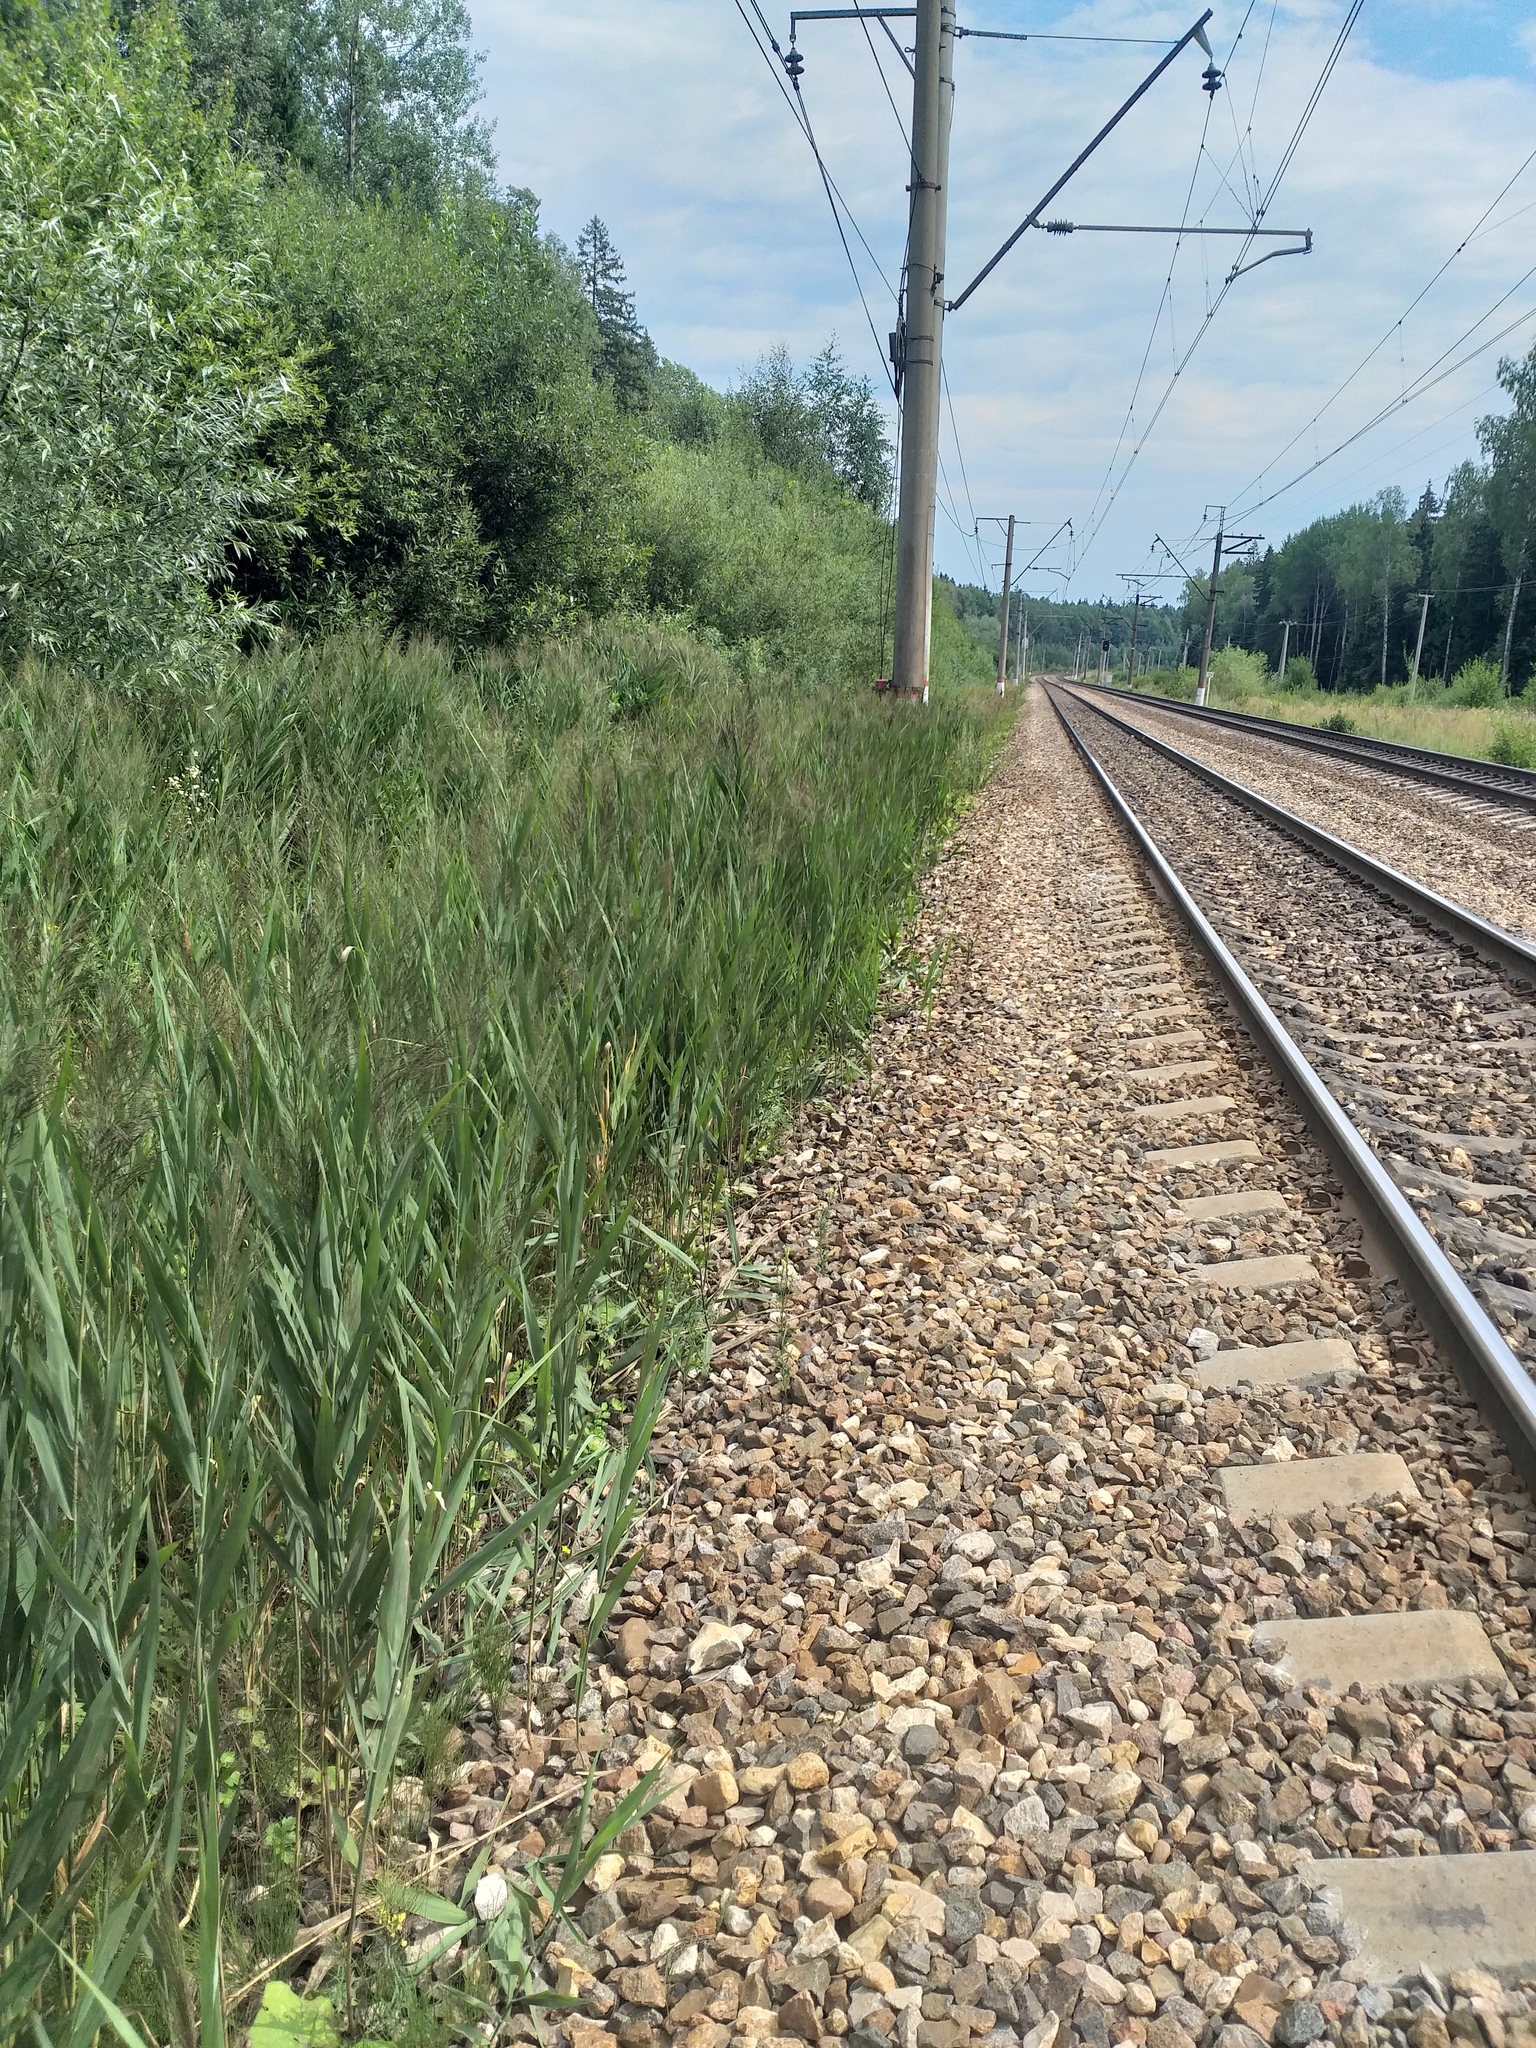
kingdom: Plantae
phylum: Tracheophyta
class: Liliopsida
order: Poales
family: Poaceae
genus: Phragmites
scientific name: Phragmites australis
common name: Common reed
